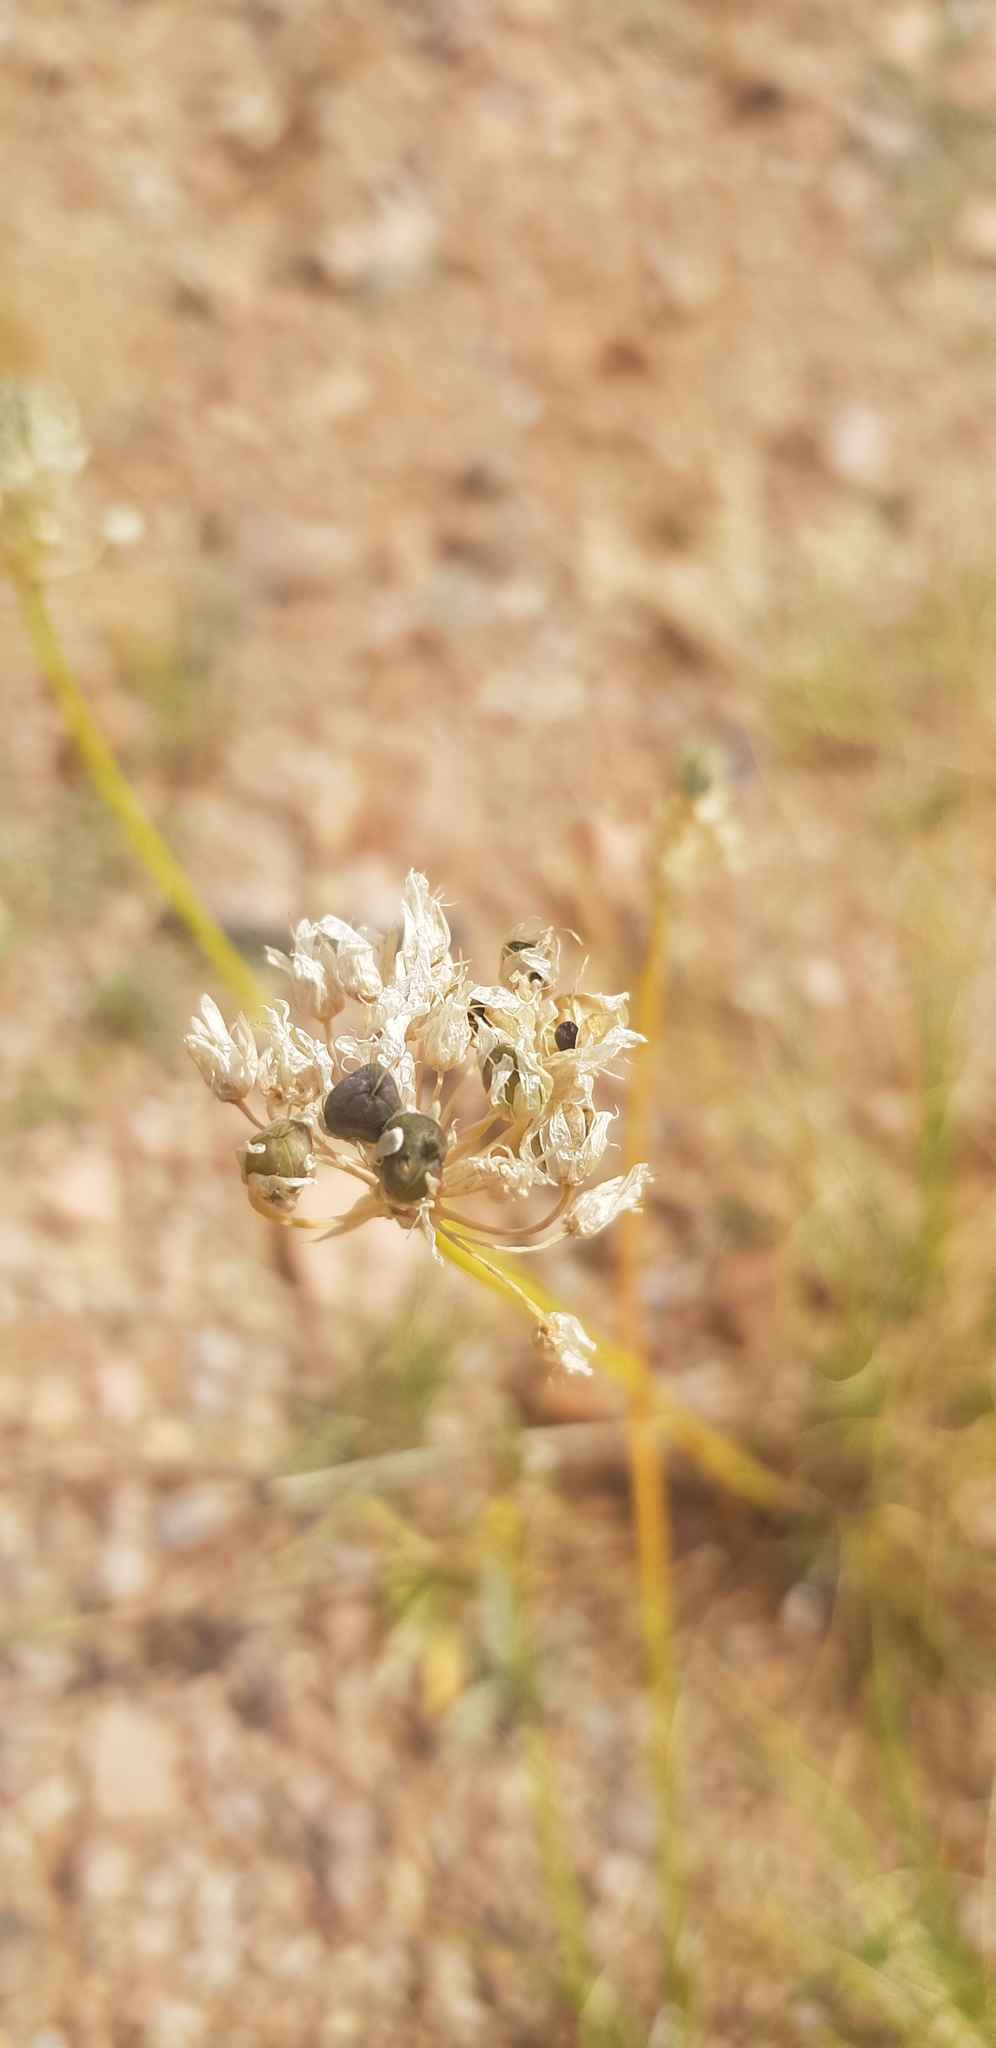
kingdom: Plantae
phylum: Tracheophyta
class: Liliopsida
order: Asparagales
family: Amaryllidaceae
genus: Allium
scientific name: Allium polyrhizum
